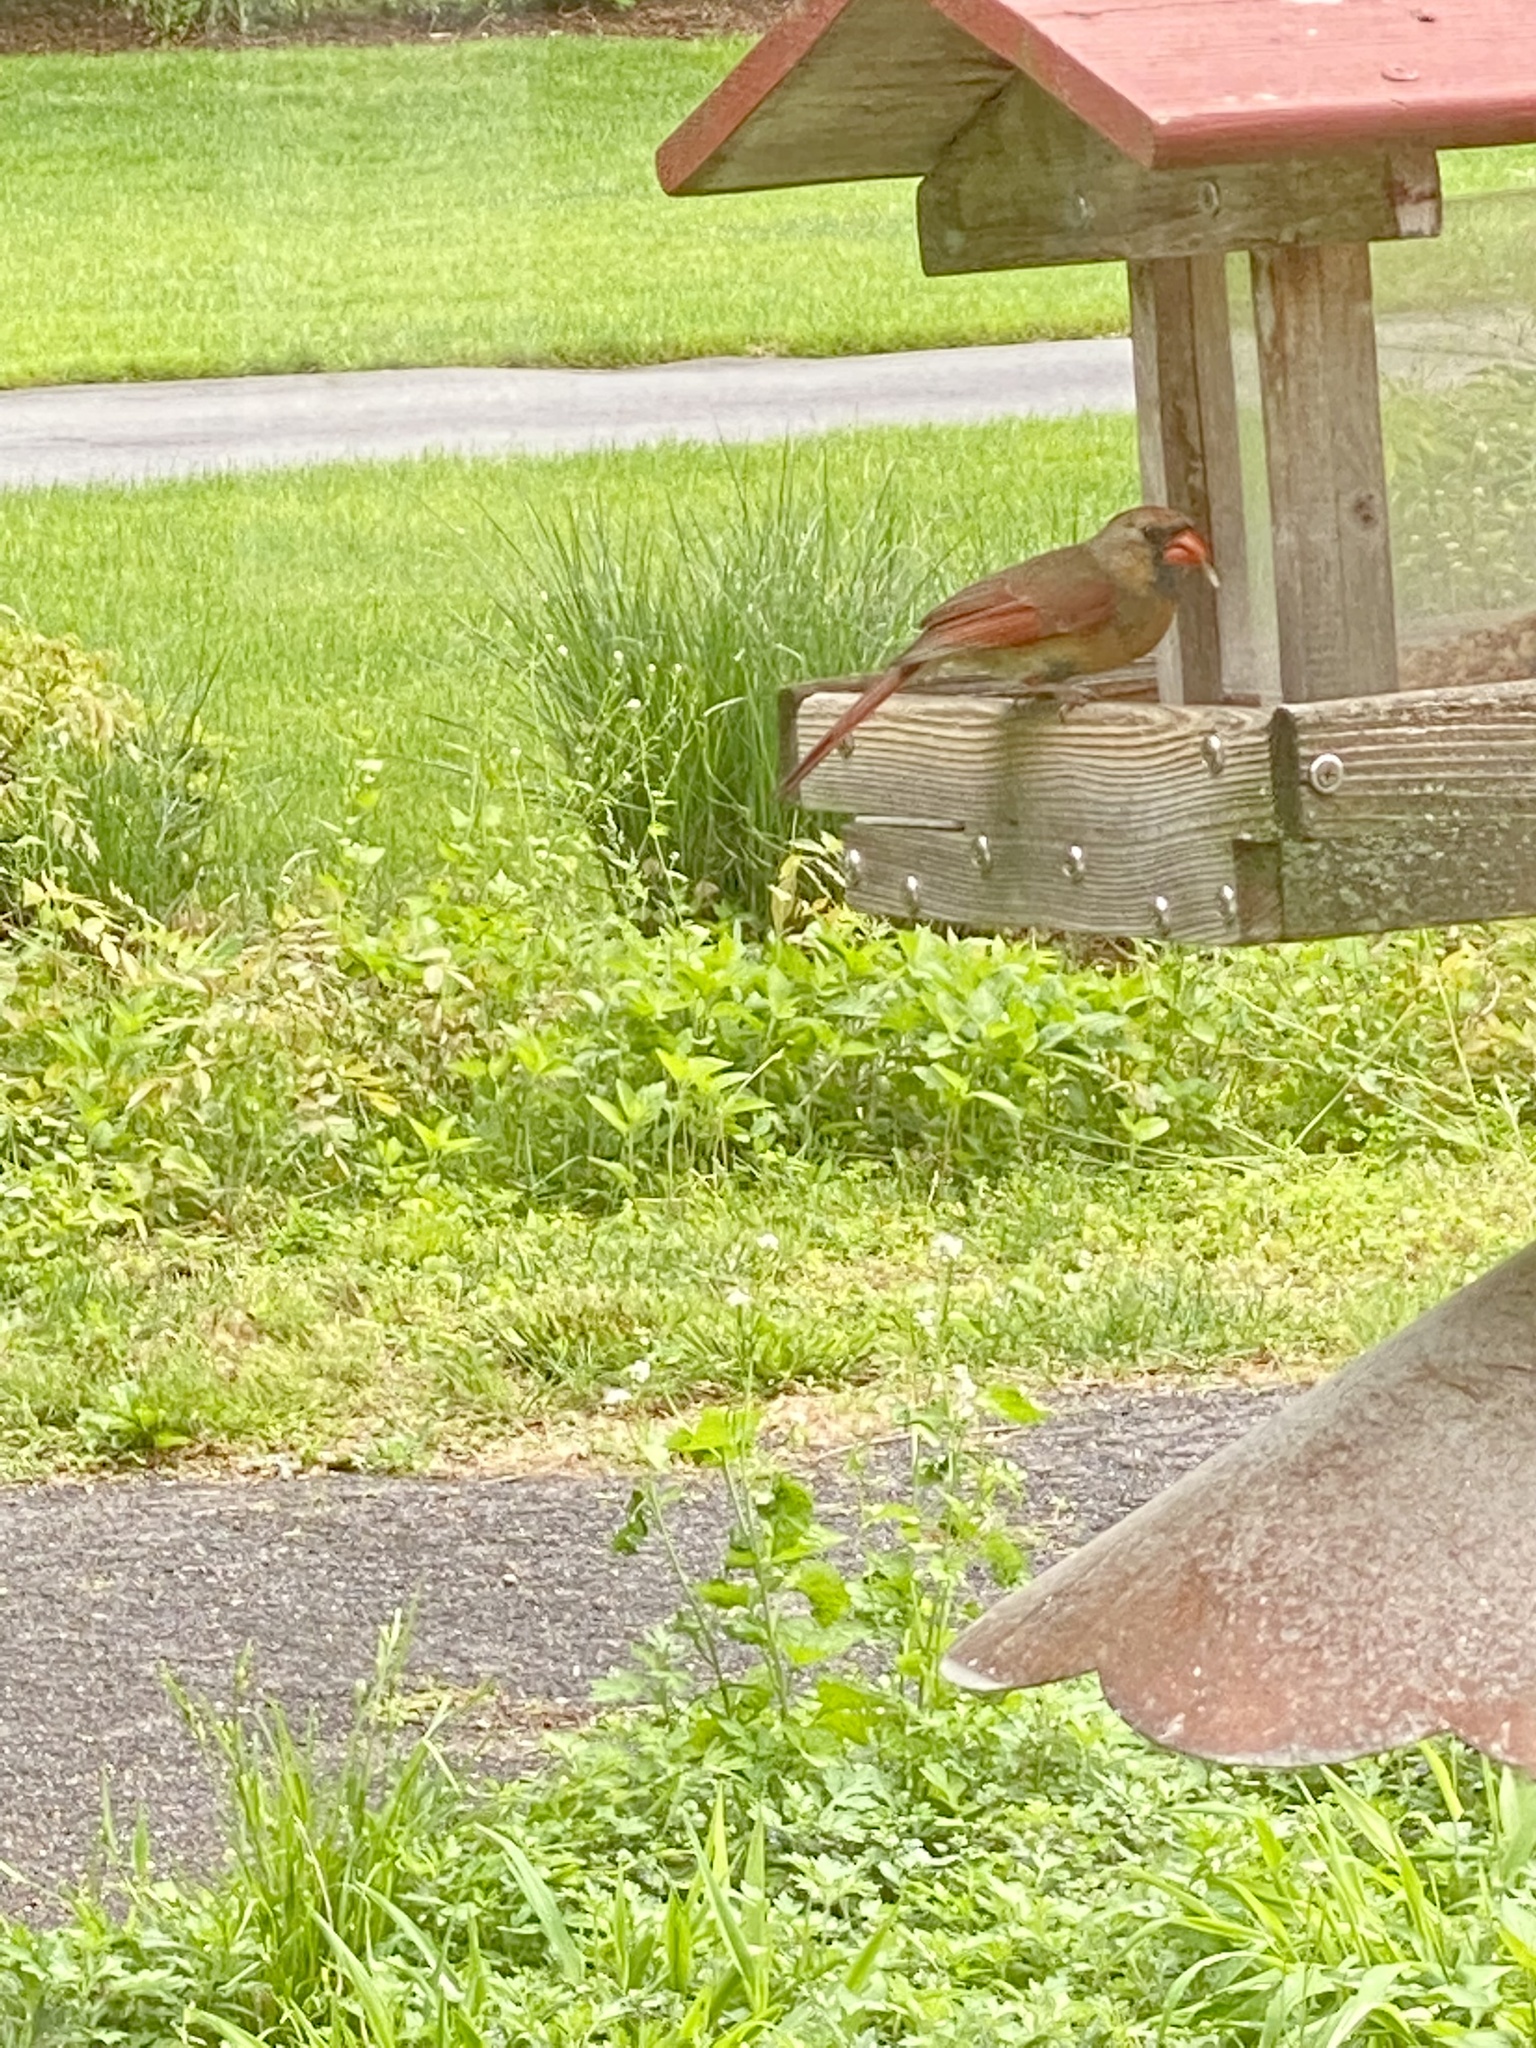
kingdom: Animalia
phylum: Chordata
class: Aves
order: Passeriformes
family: Cardinalidae
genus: Cardinalis
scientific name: Cardinalis cardinalis
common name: Northern cardinal
